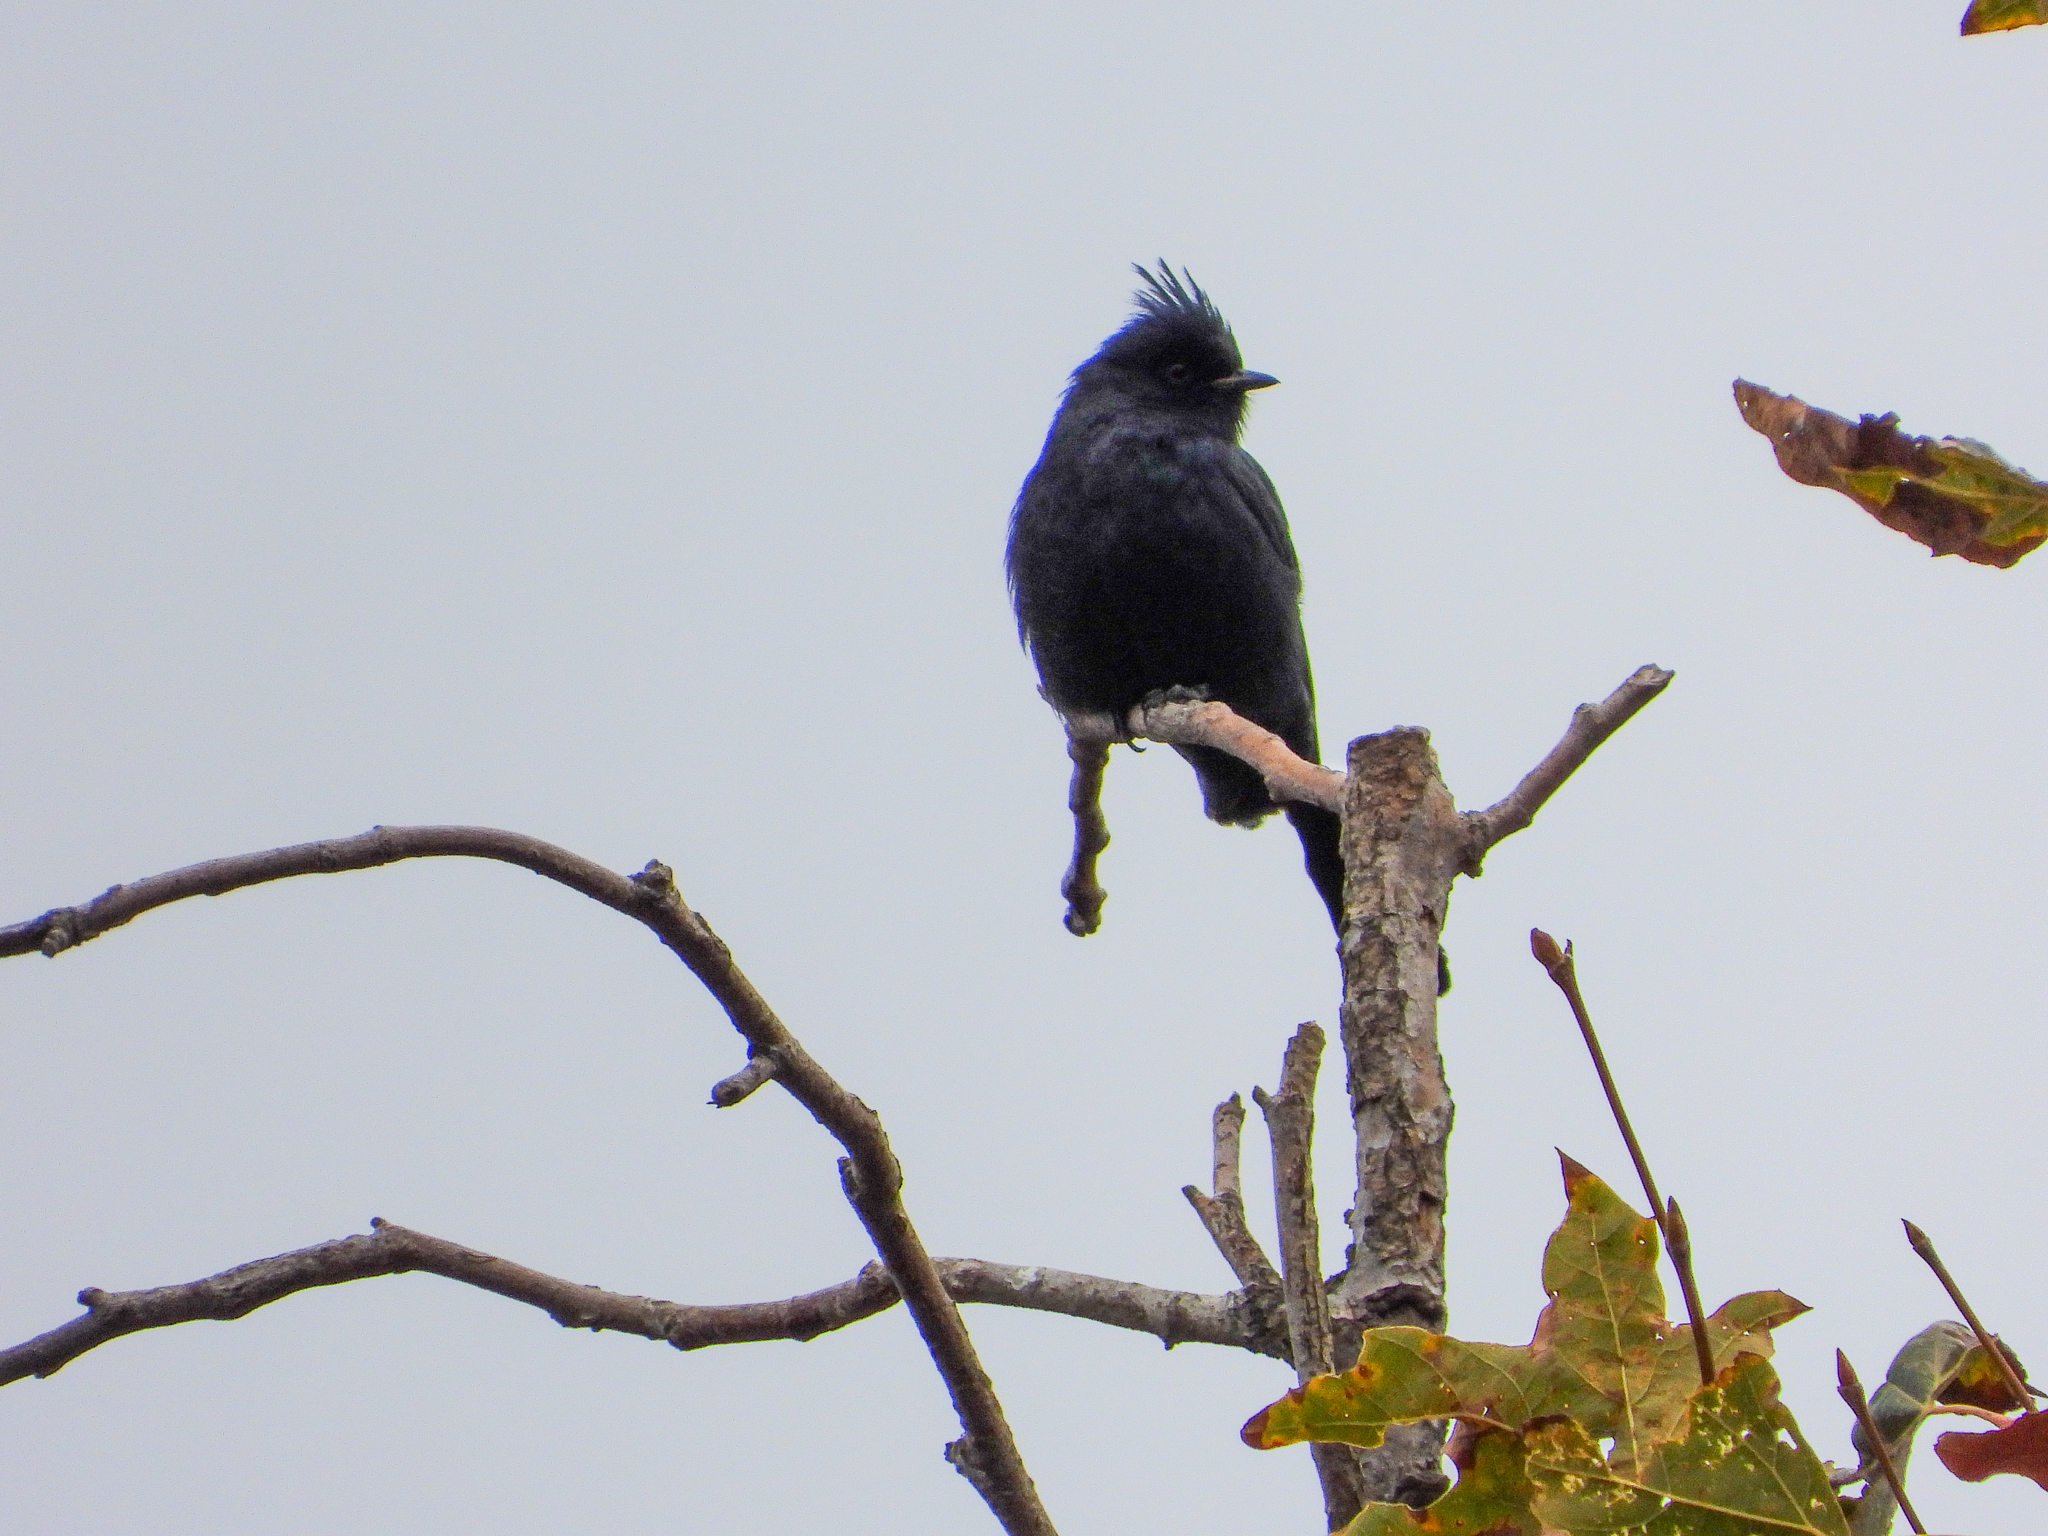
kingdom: Animalia
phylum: Chordata
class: Aves
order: Passeriformes
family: Ptilogonatidae
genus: Phainopepla
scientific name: Phainopepla nitens
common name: Phainopepla
